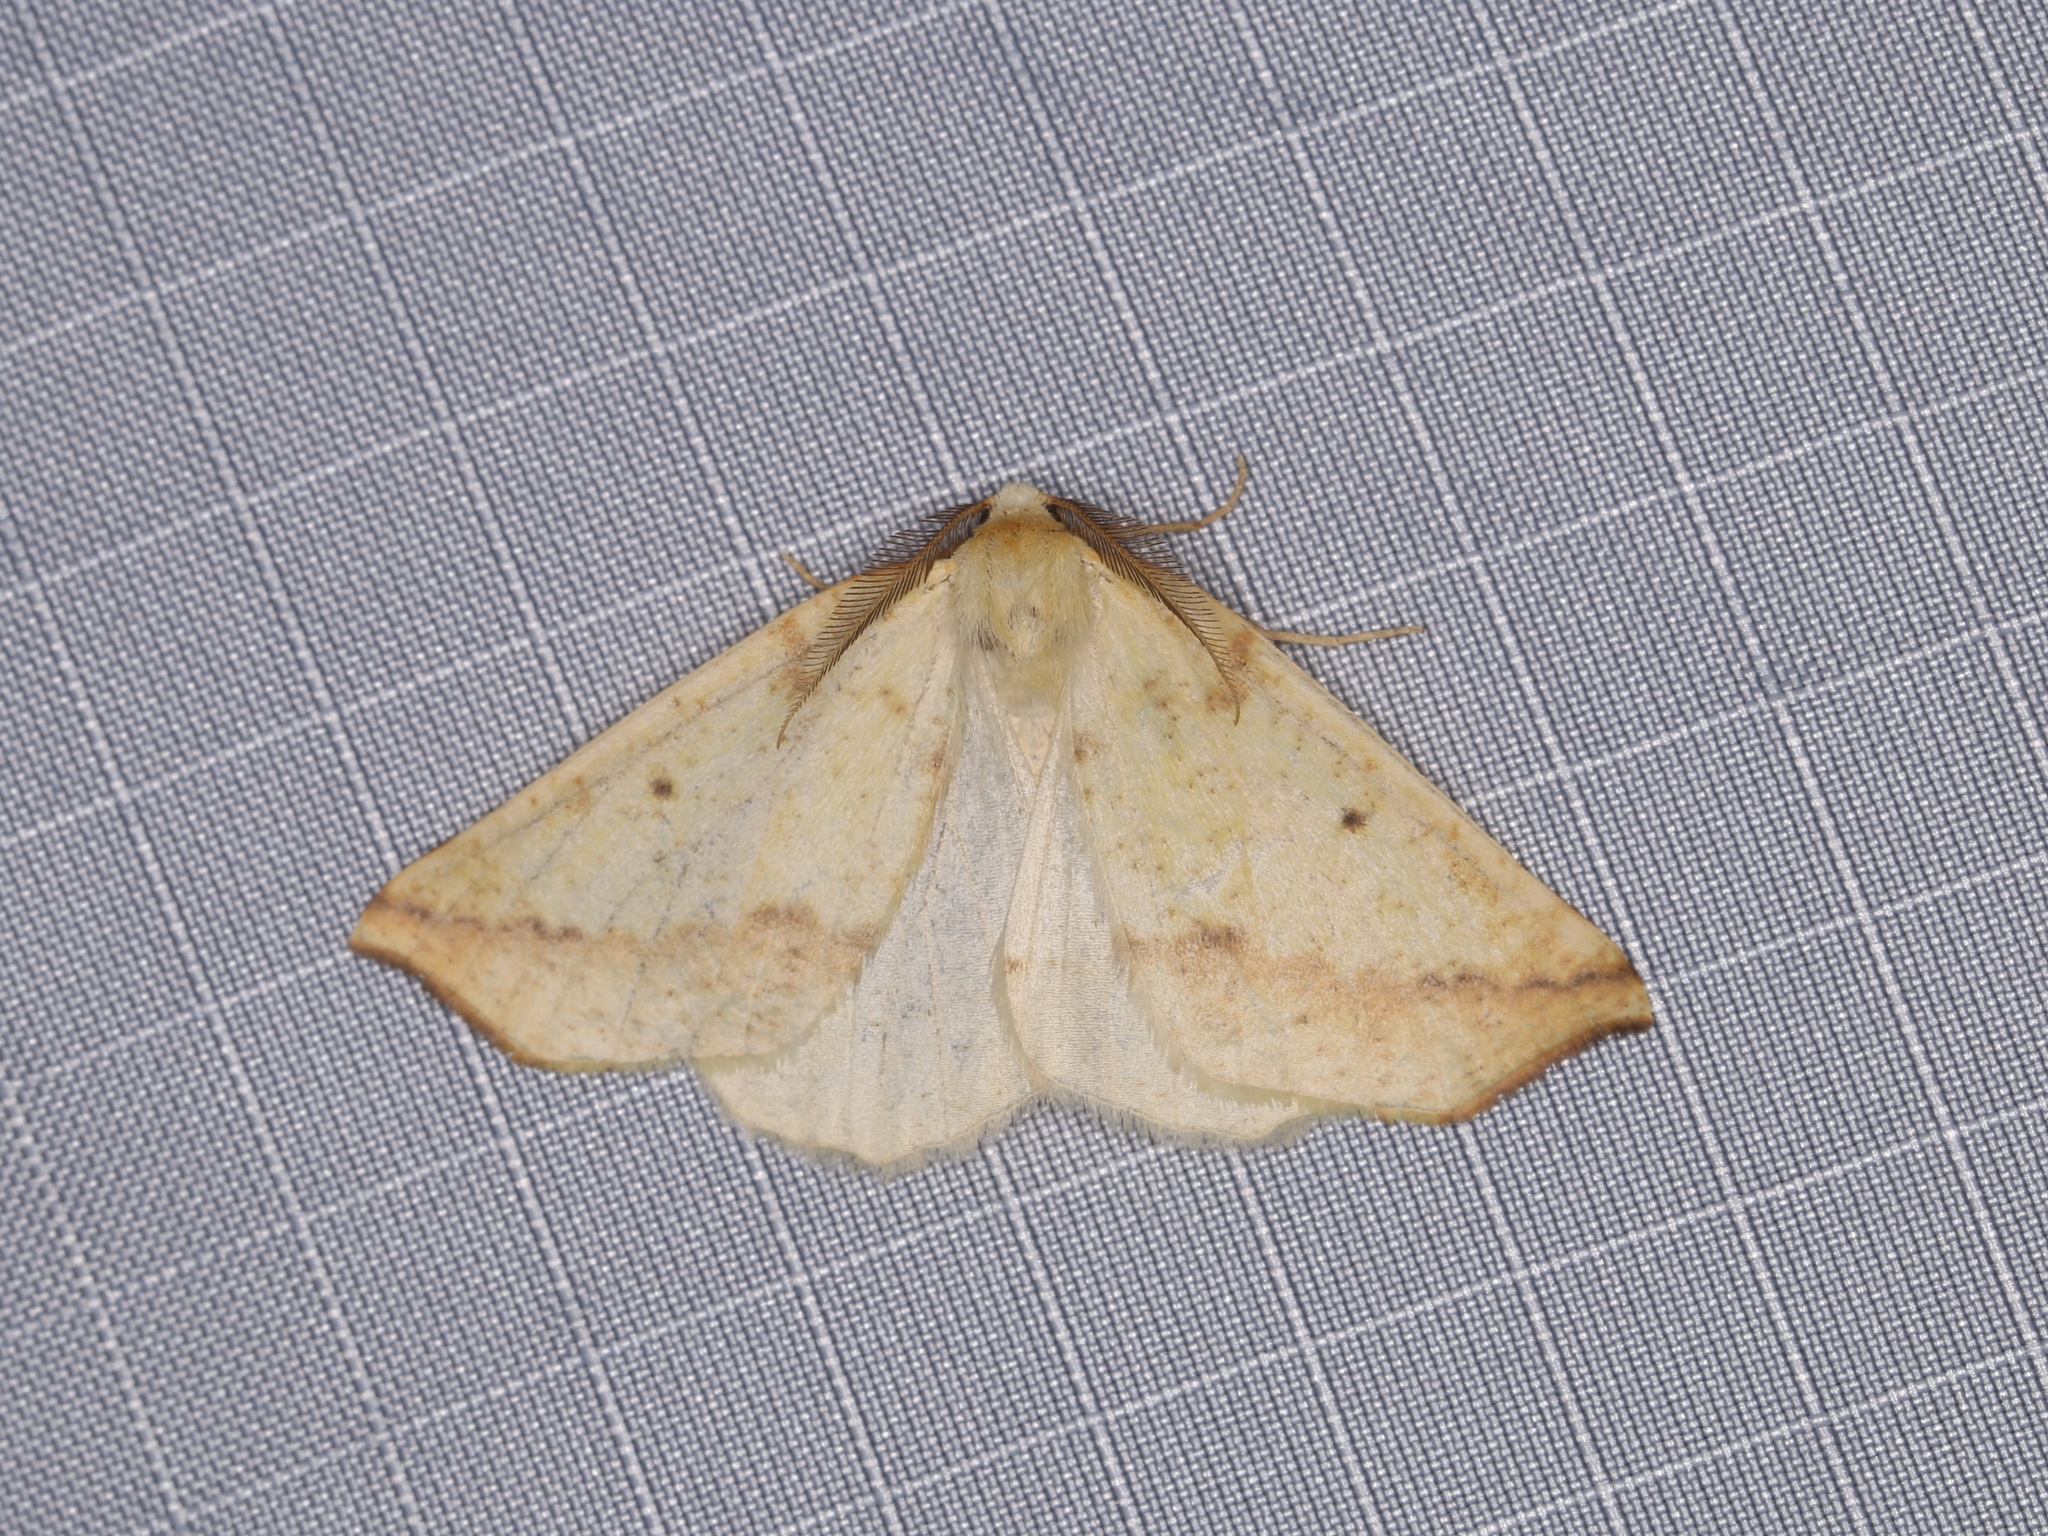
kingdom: Animalia
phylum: Arthropoda
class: Insecta
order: Lepidoptera
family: Geometridae
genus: Neoterpes
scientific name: Neoterpes edwardsata
